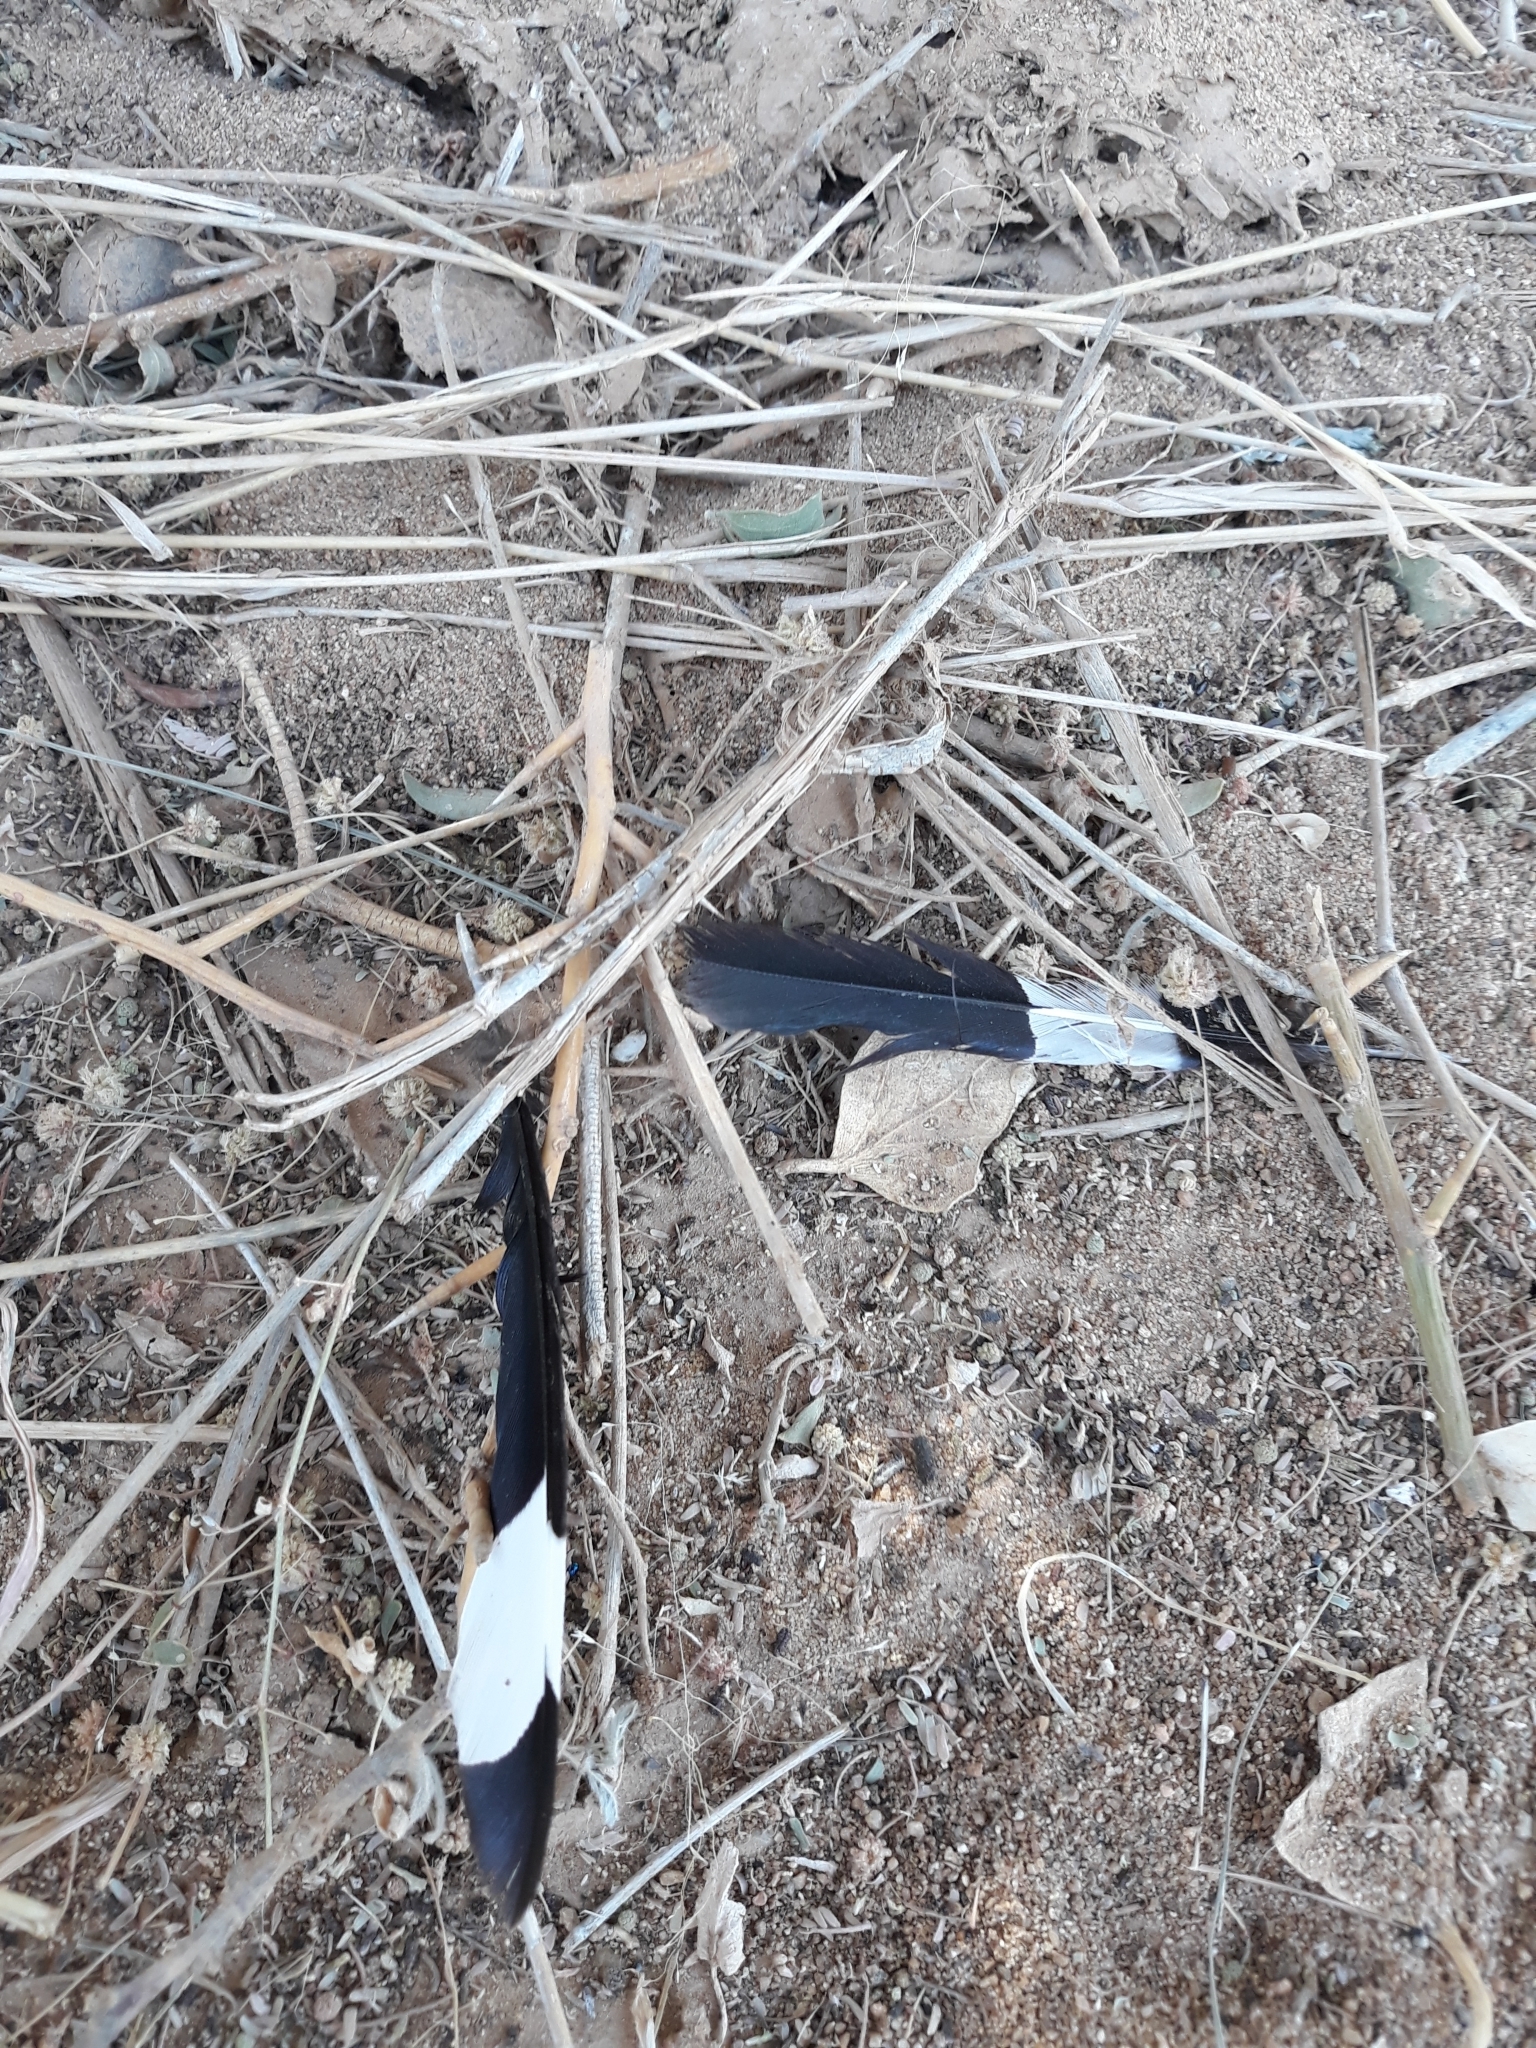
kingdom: Animalia
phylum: Chordata
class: Aves
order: Bucerotiformes
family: Upupidae
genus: Upupa
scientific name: Upupa epops
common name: Eurasian hoopoe
